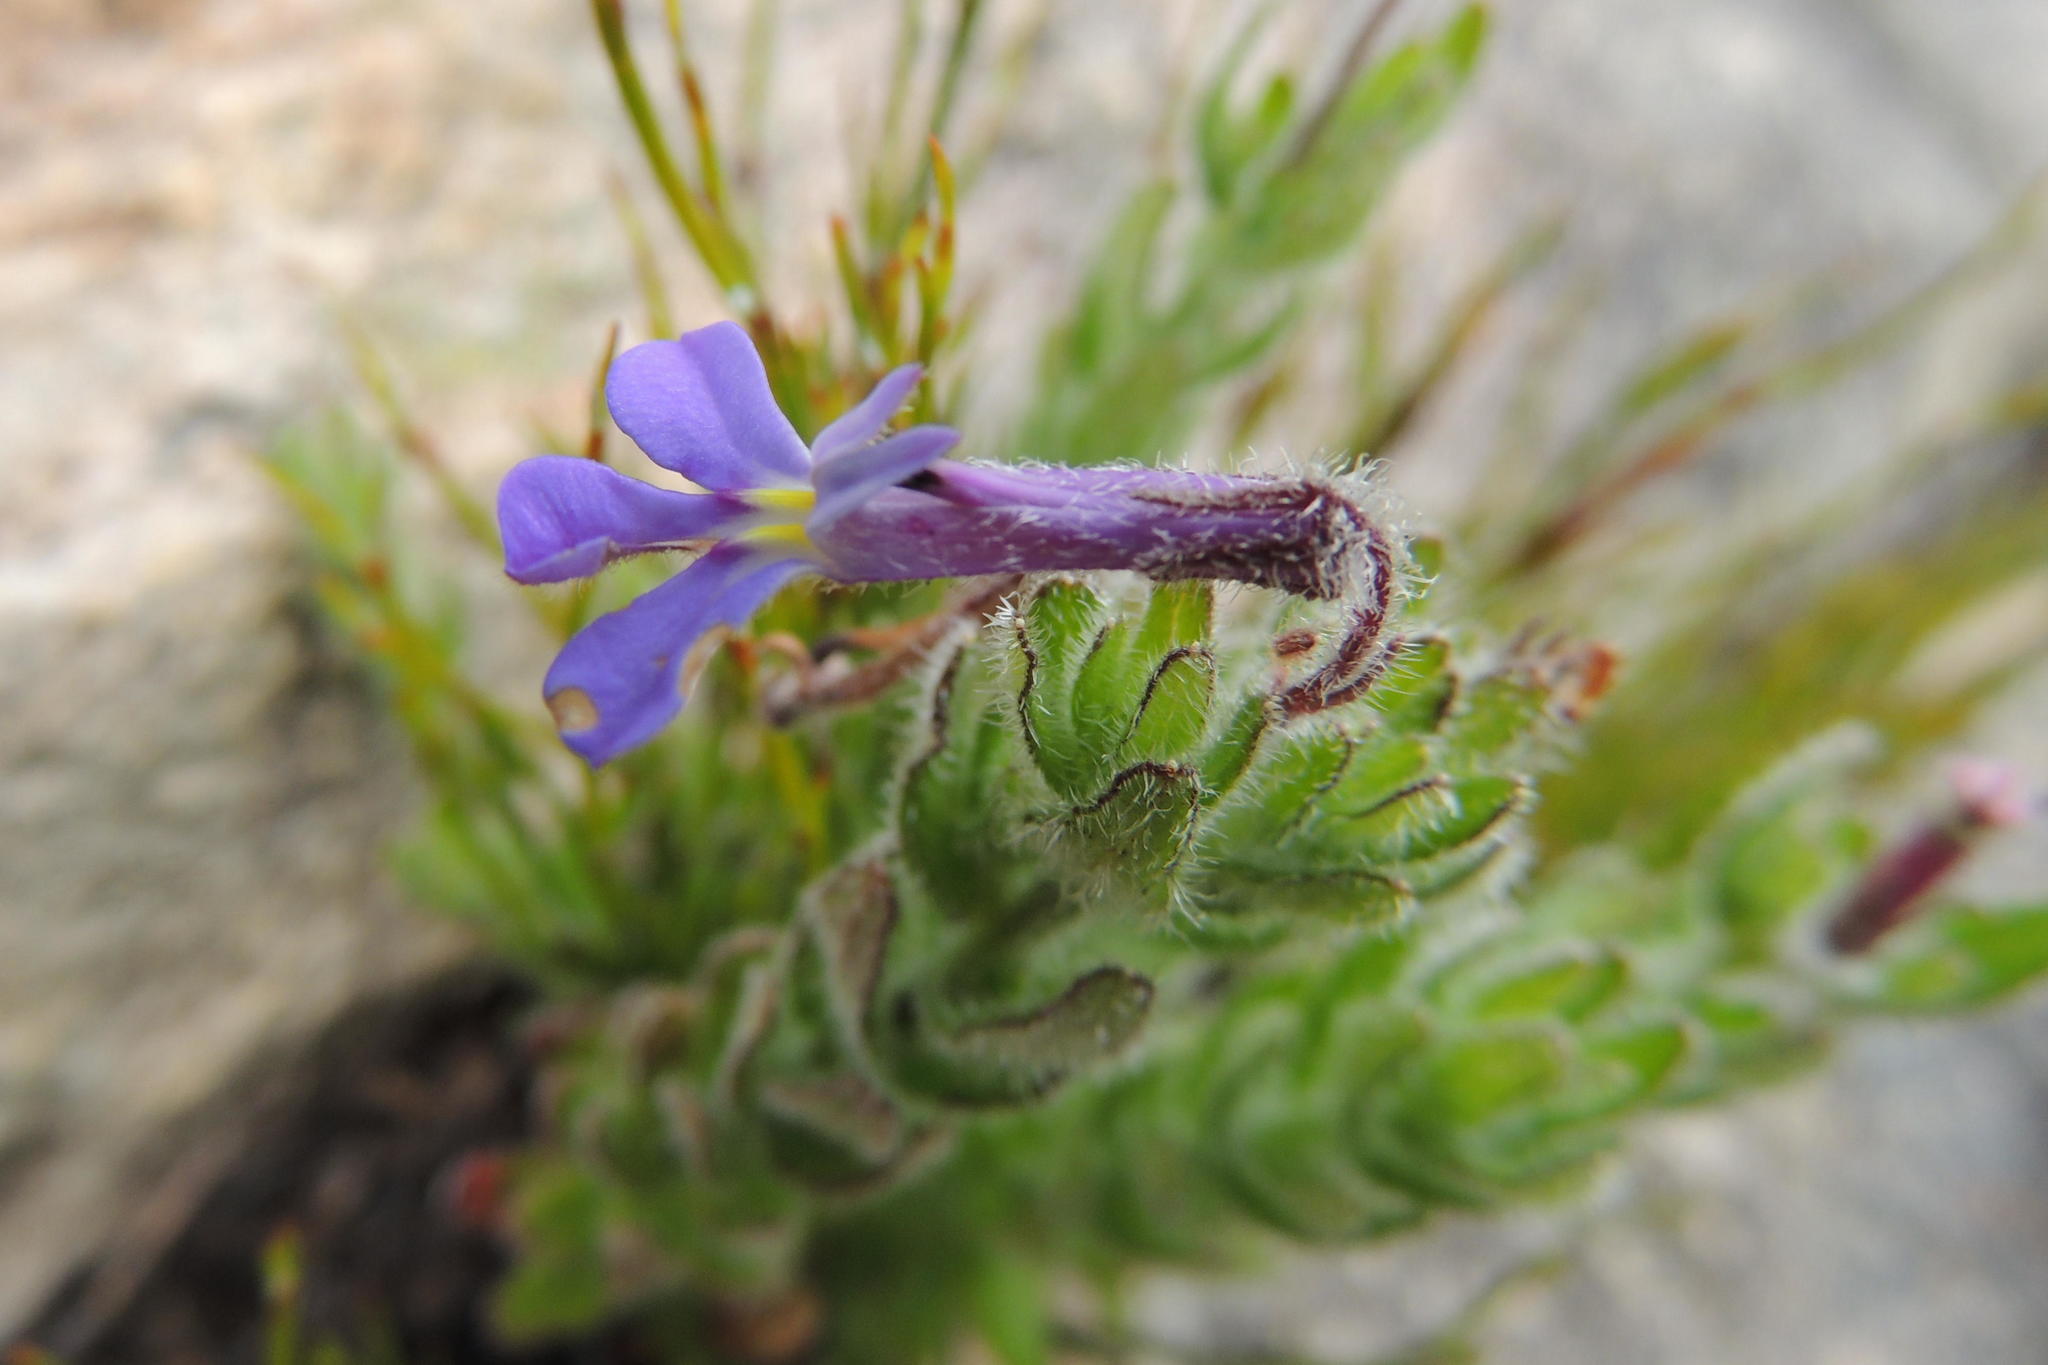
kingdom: Plantae
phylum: Tracheophyta
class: Magnoliopsida
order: Asterales
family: Campanulaceae
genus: Lobelia
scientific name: Lobelia neglecta
